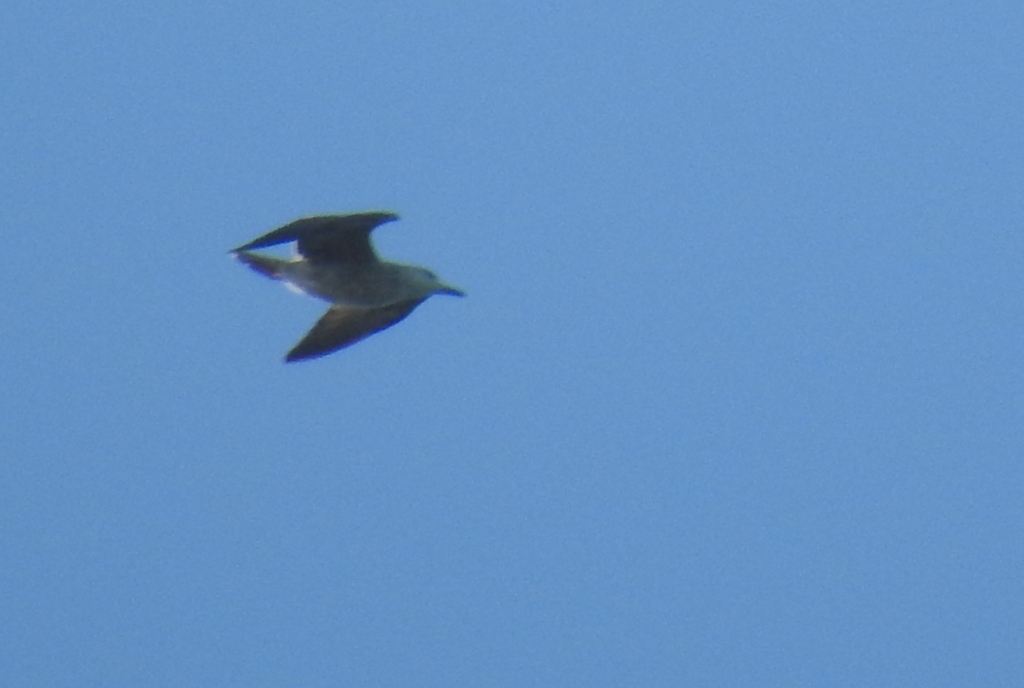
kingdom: Animalia
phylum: Chordata
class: Aves
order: Charadriiformes
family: Laridae
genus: Larus
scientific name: Larus michahellis
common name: Yellow-legged gull
